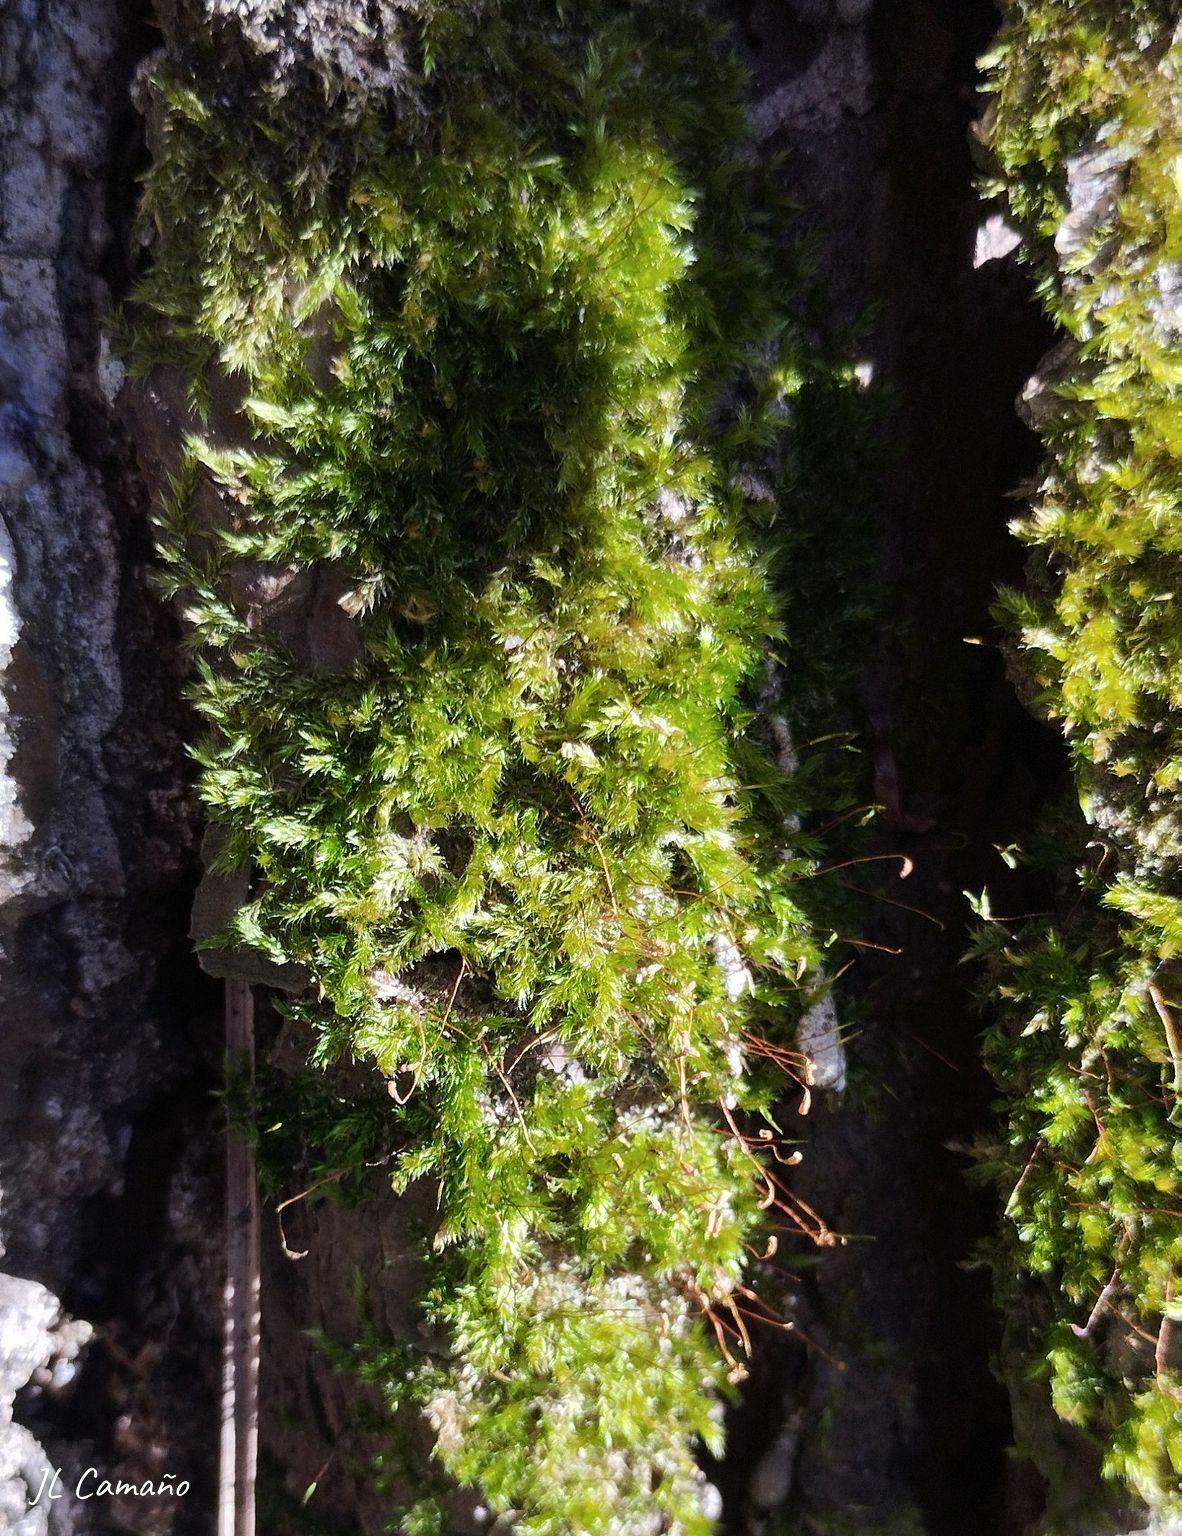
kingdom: Plantae
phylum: Bryophyta
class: Bryopsida
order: Hypnales
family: Sematophyllaceae
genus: Sematophyllum
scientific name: Sematophyllum substrumulosum
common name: Bark signal-moss
